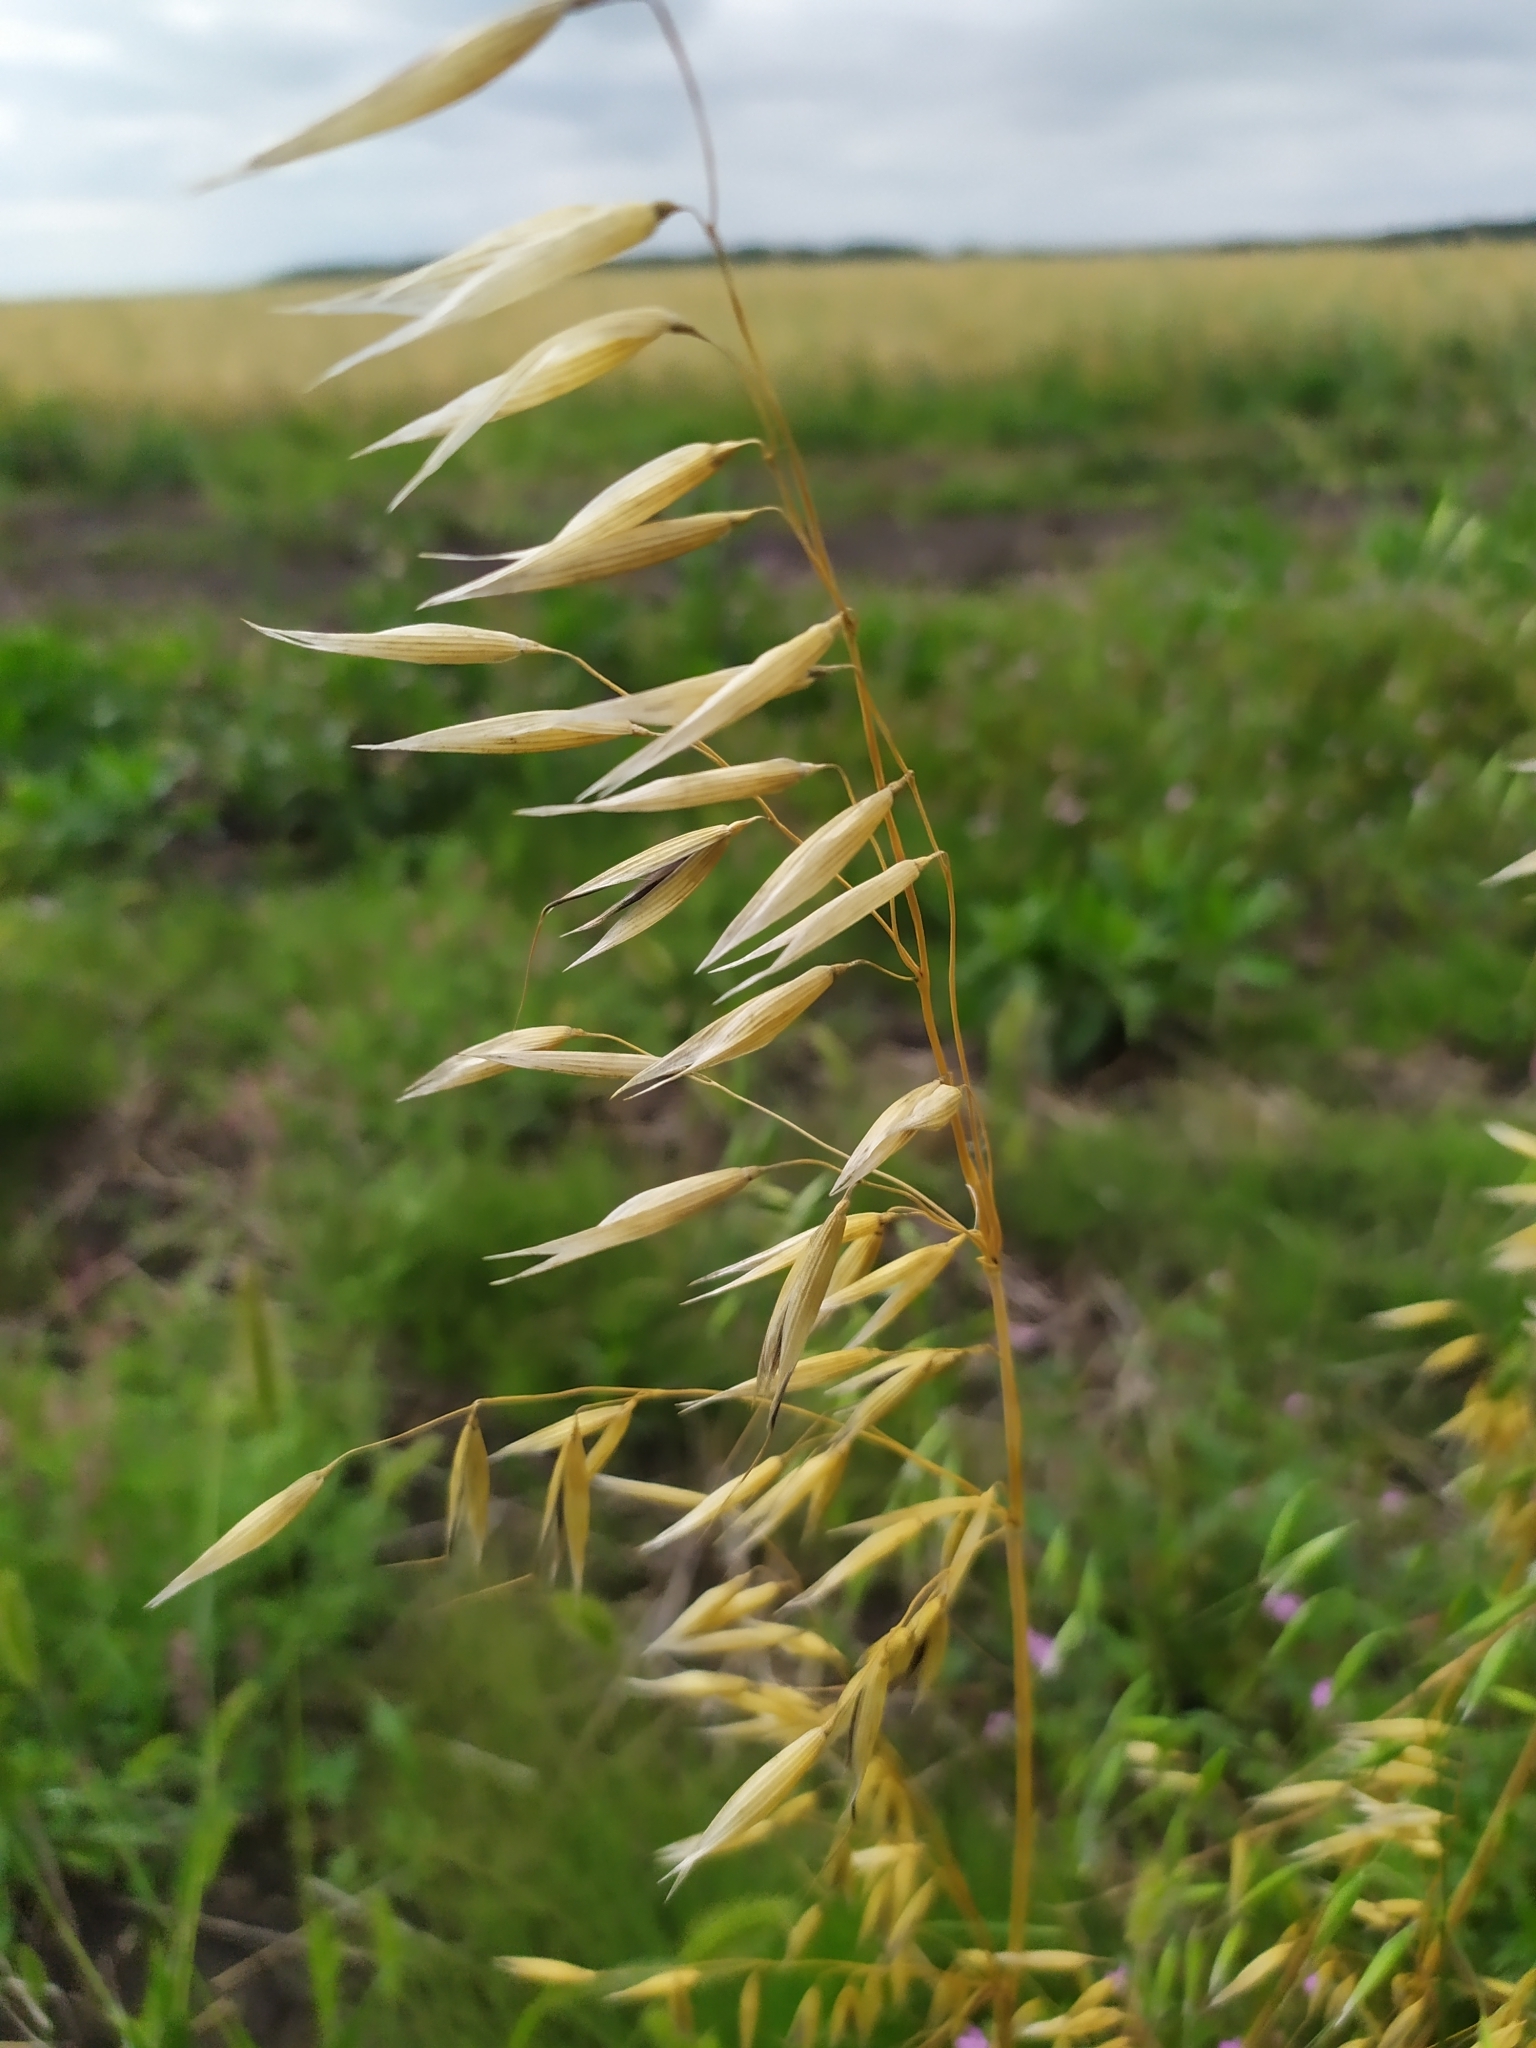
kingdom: Plantae
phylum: Tracheophyta
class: Liliopsida
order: Poales
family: Poaceae
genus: Avena
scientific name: Avena fatua
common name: Wild oat
